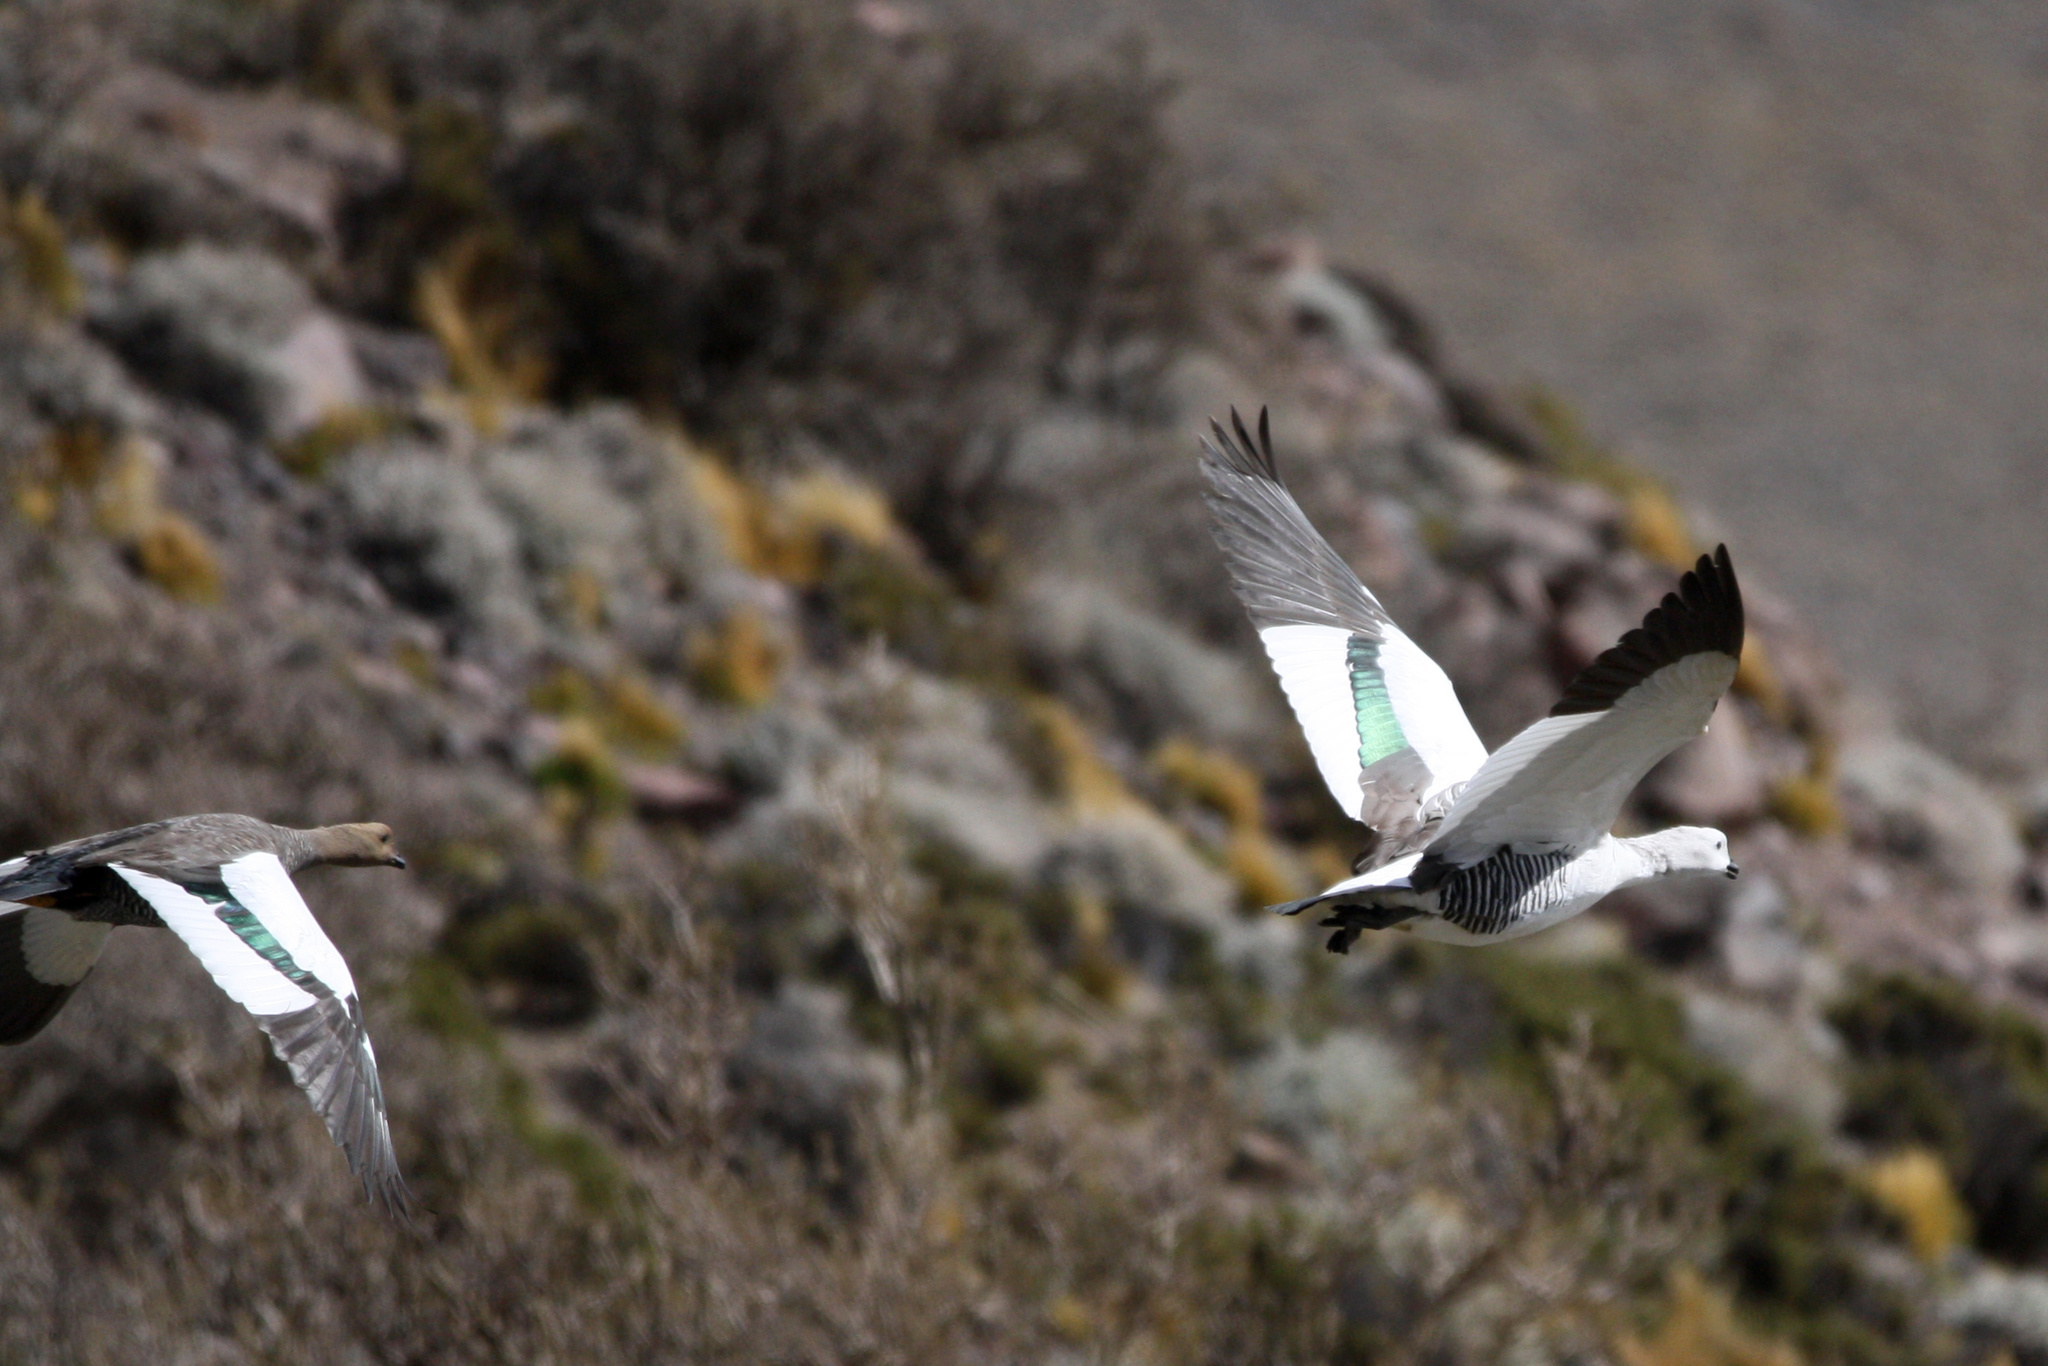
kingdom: Animalia
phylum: Chordata
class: Aves
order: Anseriformes
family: Anatidae
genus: Chloephaga
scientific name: Chloephaga picta
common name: Upland goose
